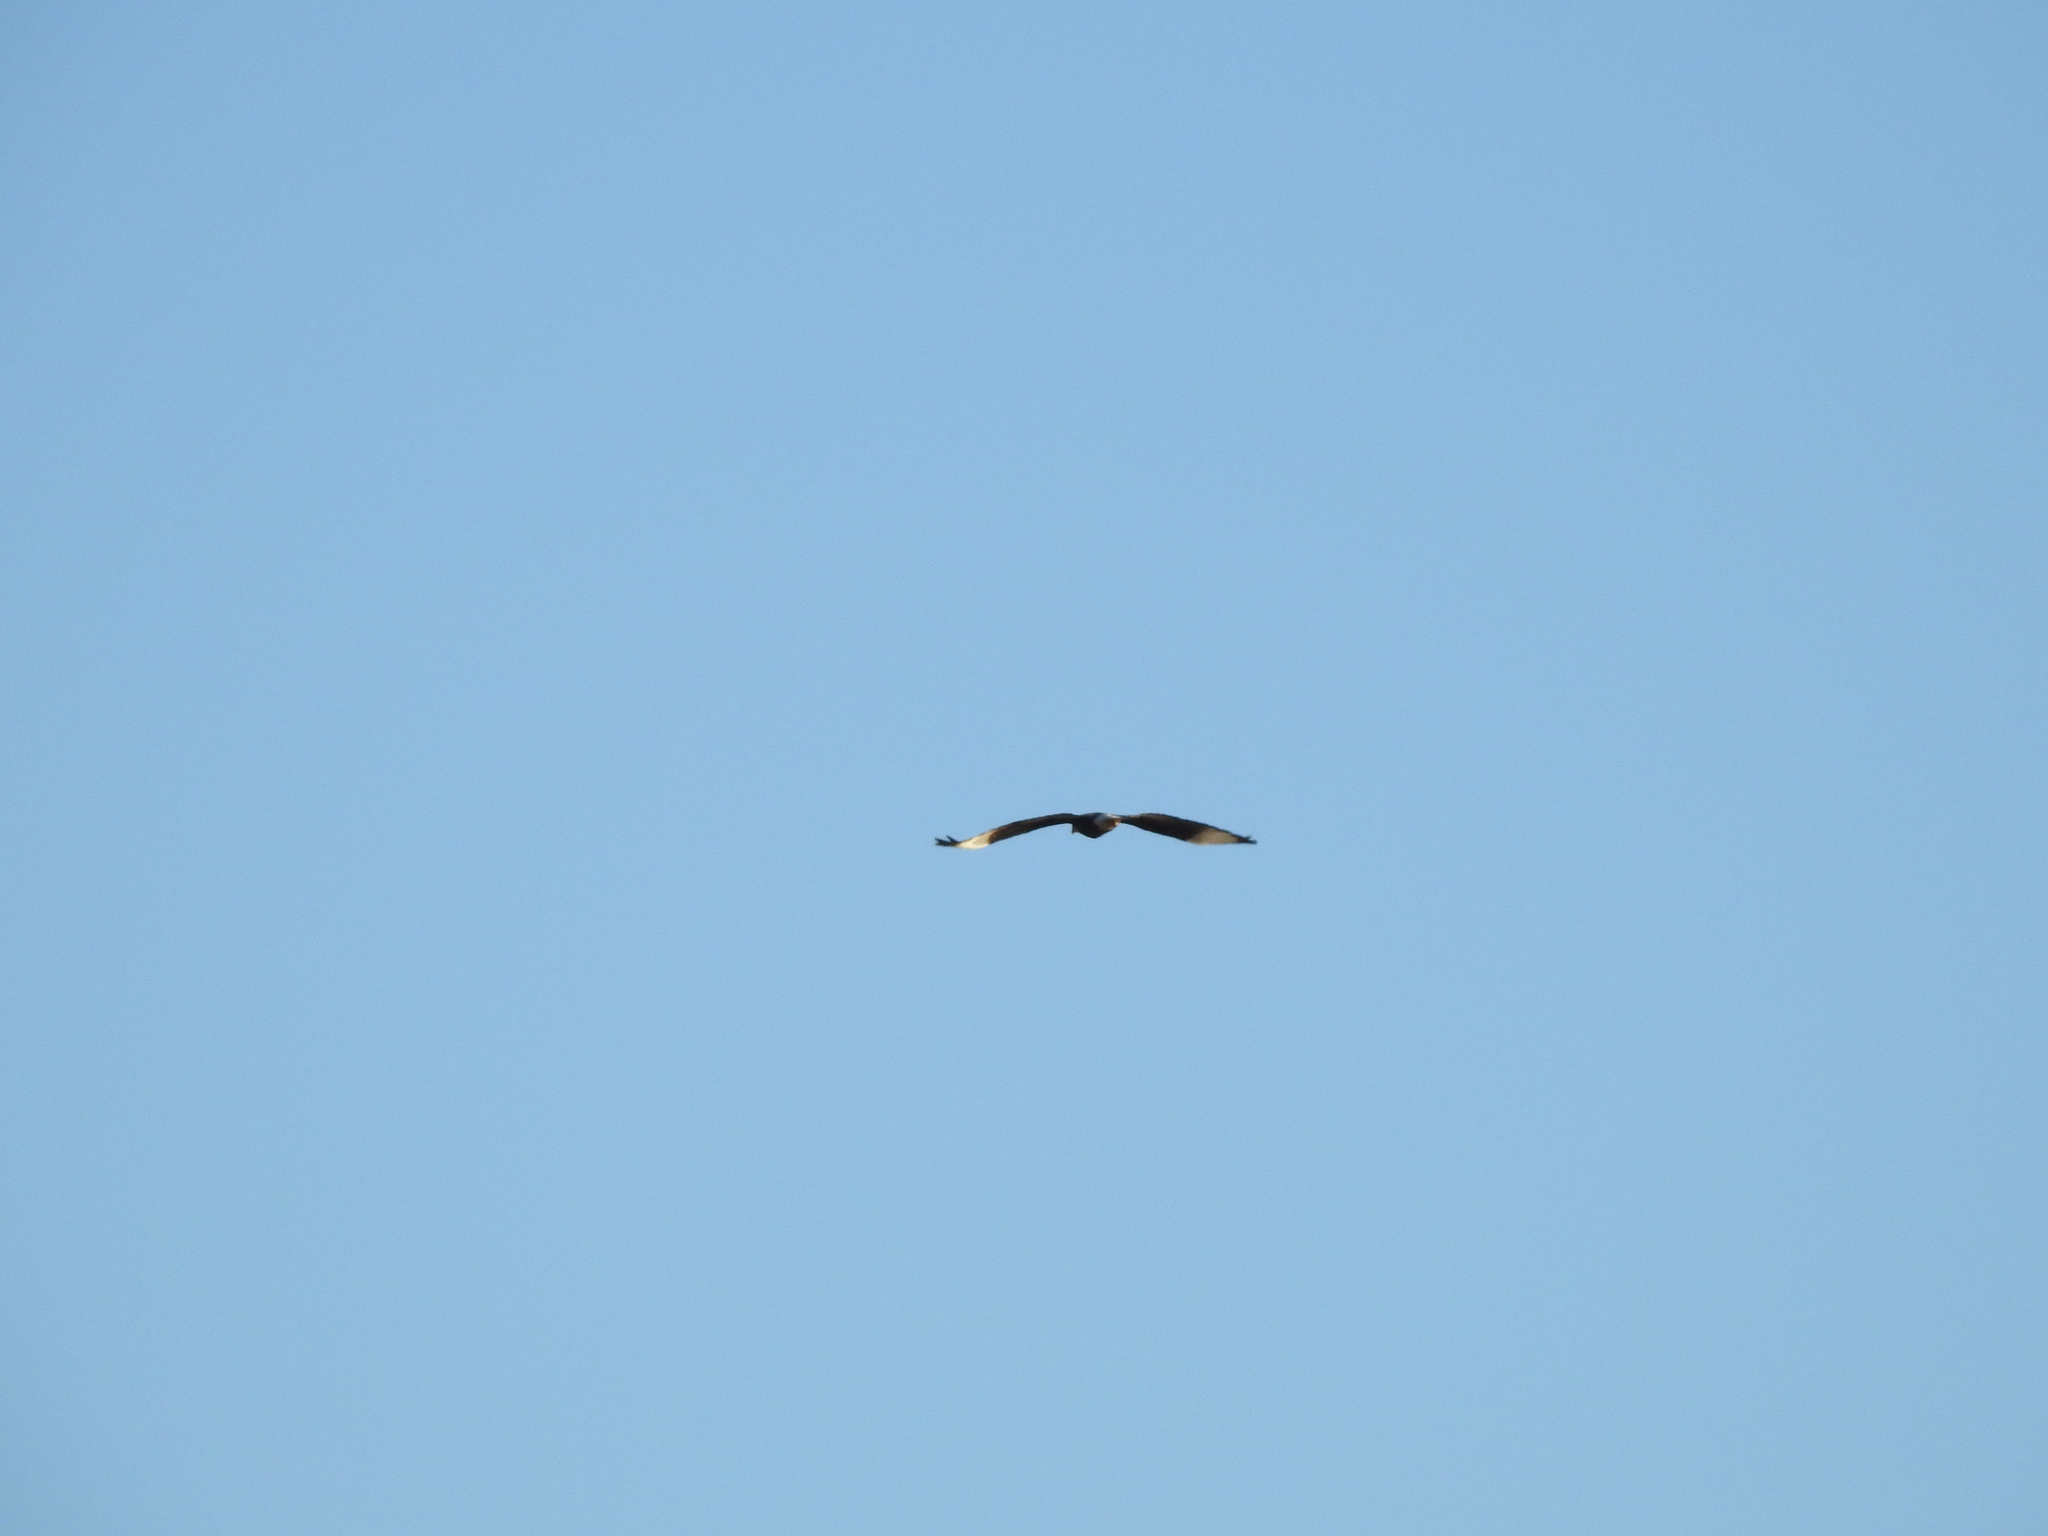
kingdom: Animalia
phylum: Chordata
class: Aves
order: Falconiformes
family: Falconidae
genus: Caracara
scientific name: Caracara plancus
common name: Southern caracara
